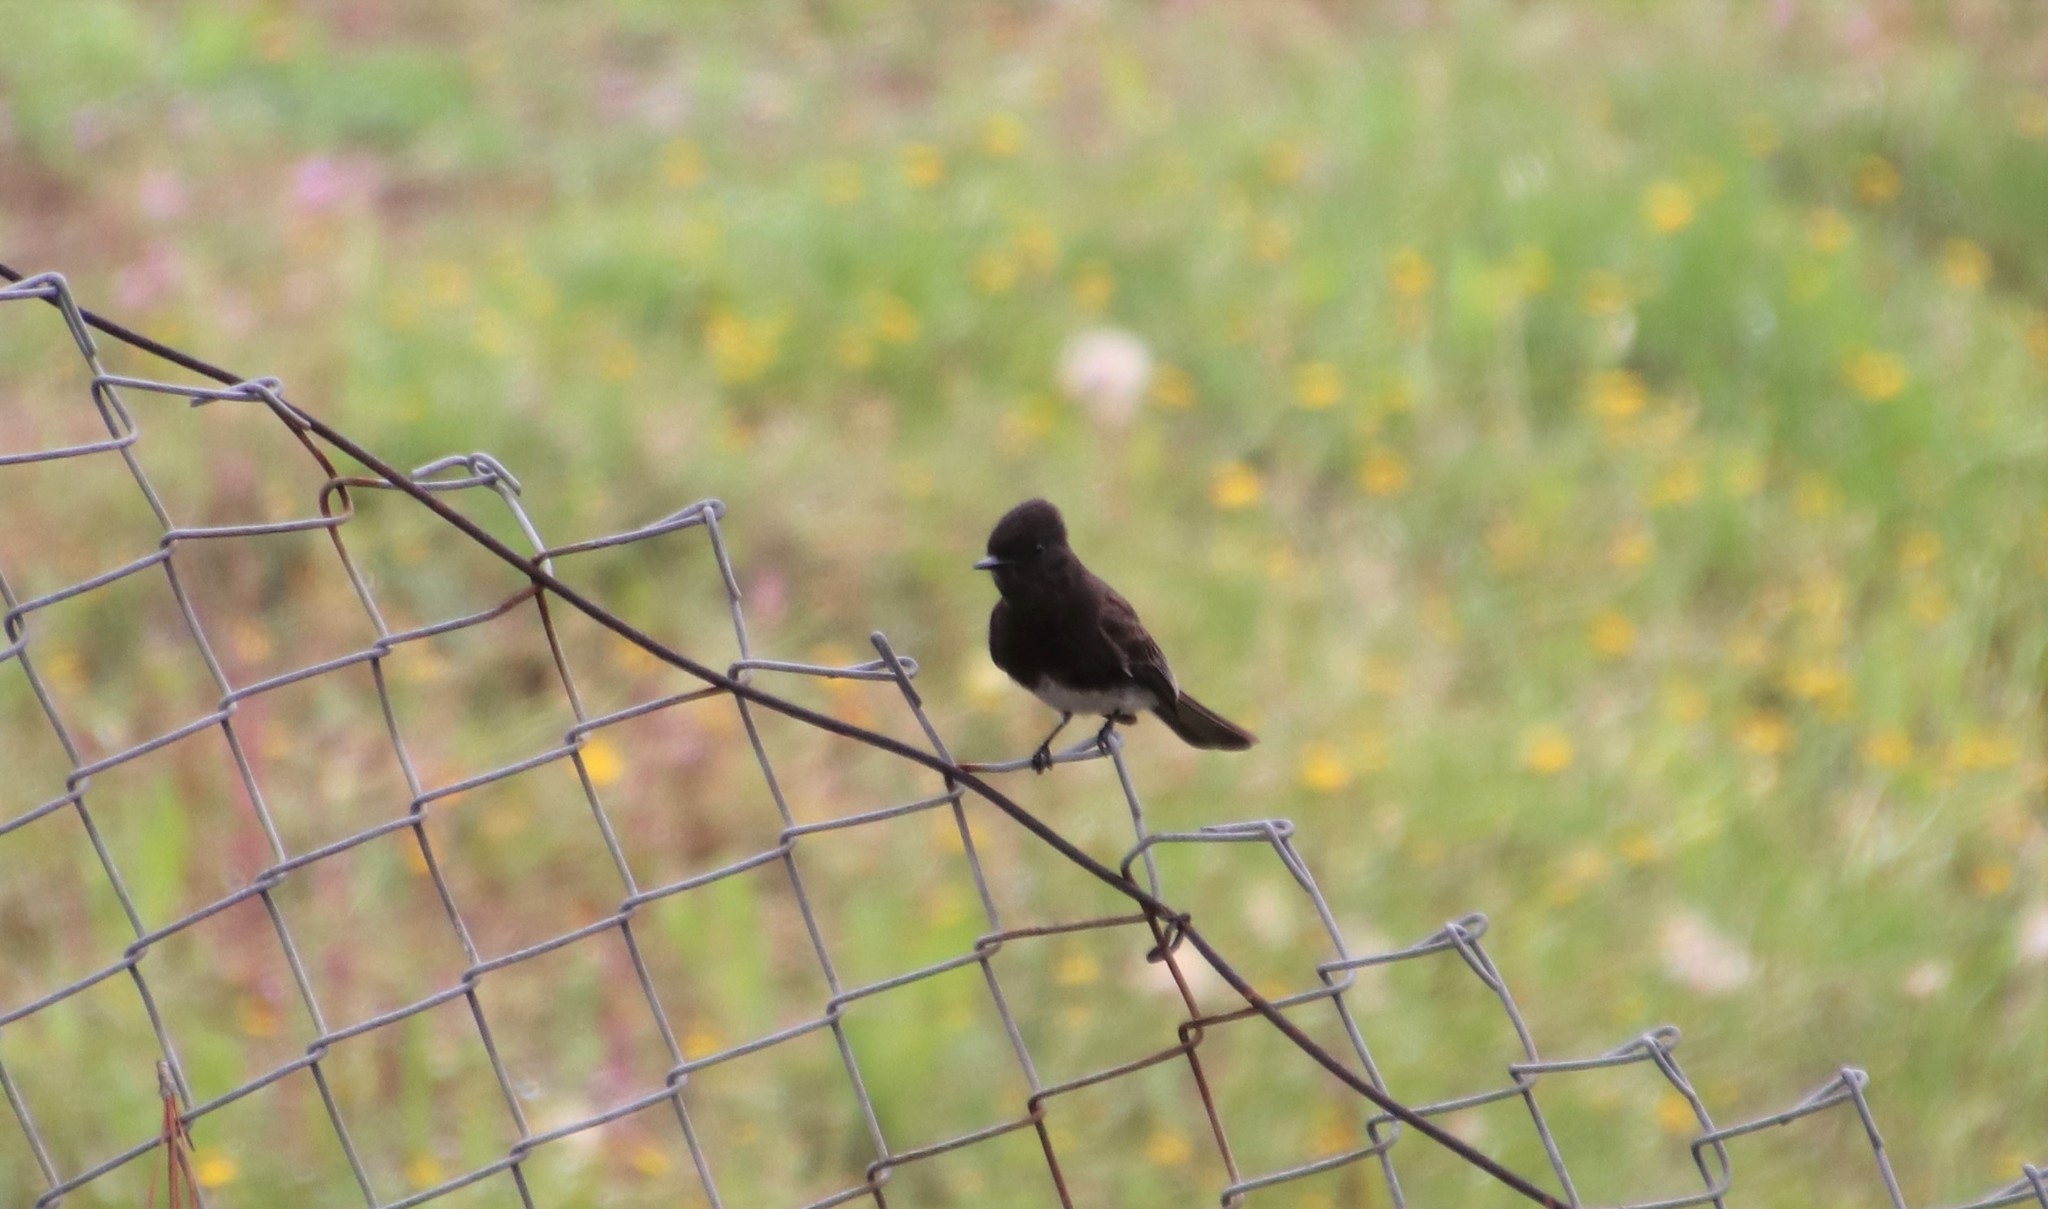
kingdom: Animalia
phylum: Chordata
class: Aves
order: Passeriformes
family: Tyrannidae
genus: Sayornis
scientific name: Sayornis nigricans
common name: Black phoebe
